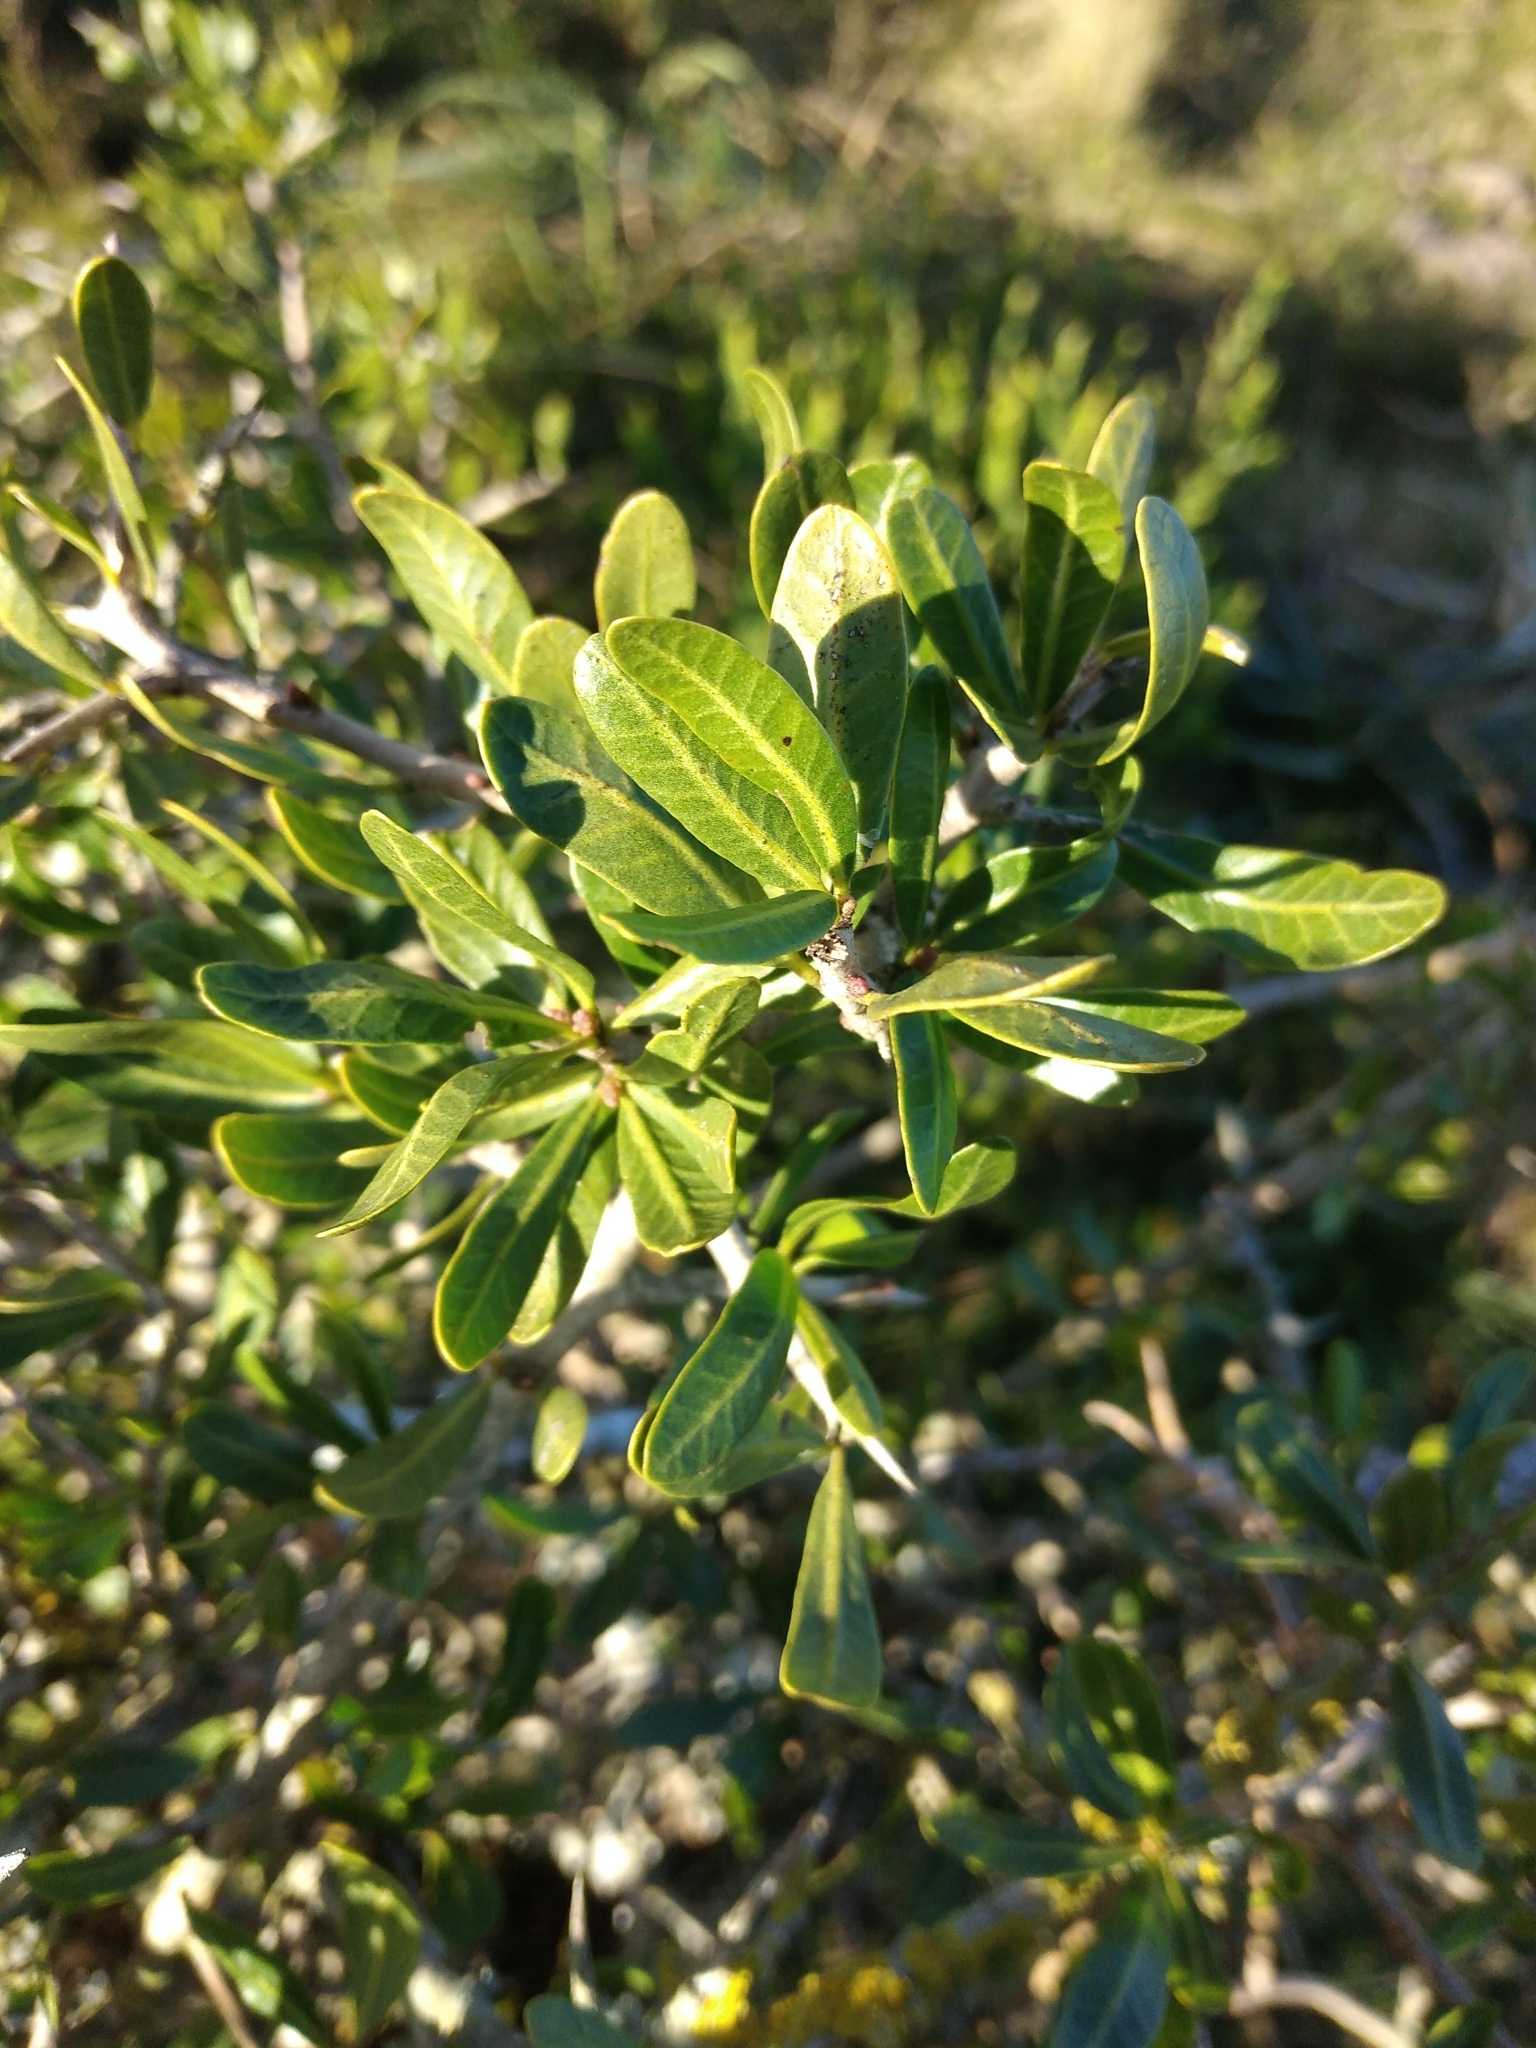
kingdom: Plantae
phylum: Tracheophyta
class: Magnoliopsida
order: Sapindales
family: Anacardiaceae
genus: Schinus
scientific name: Schinus longifolia
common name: Longleaf peppertree
